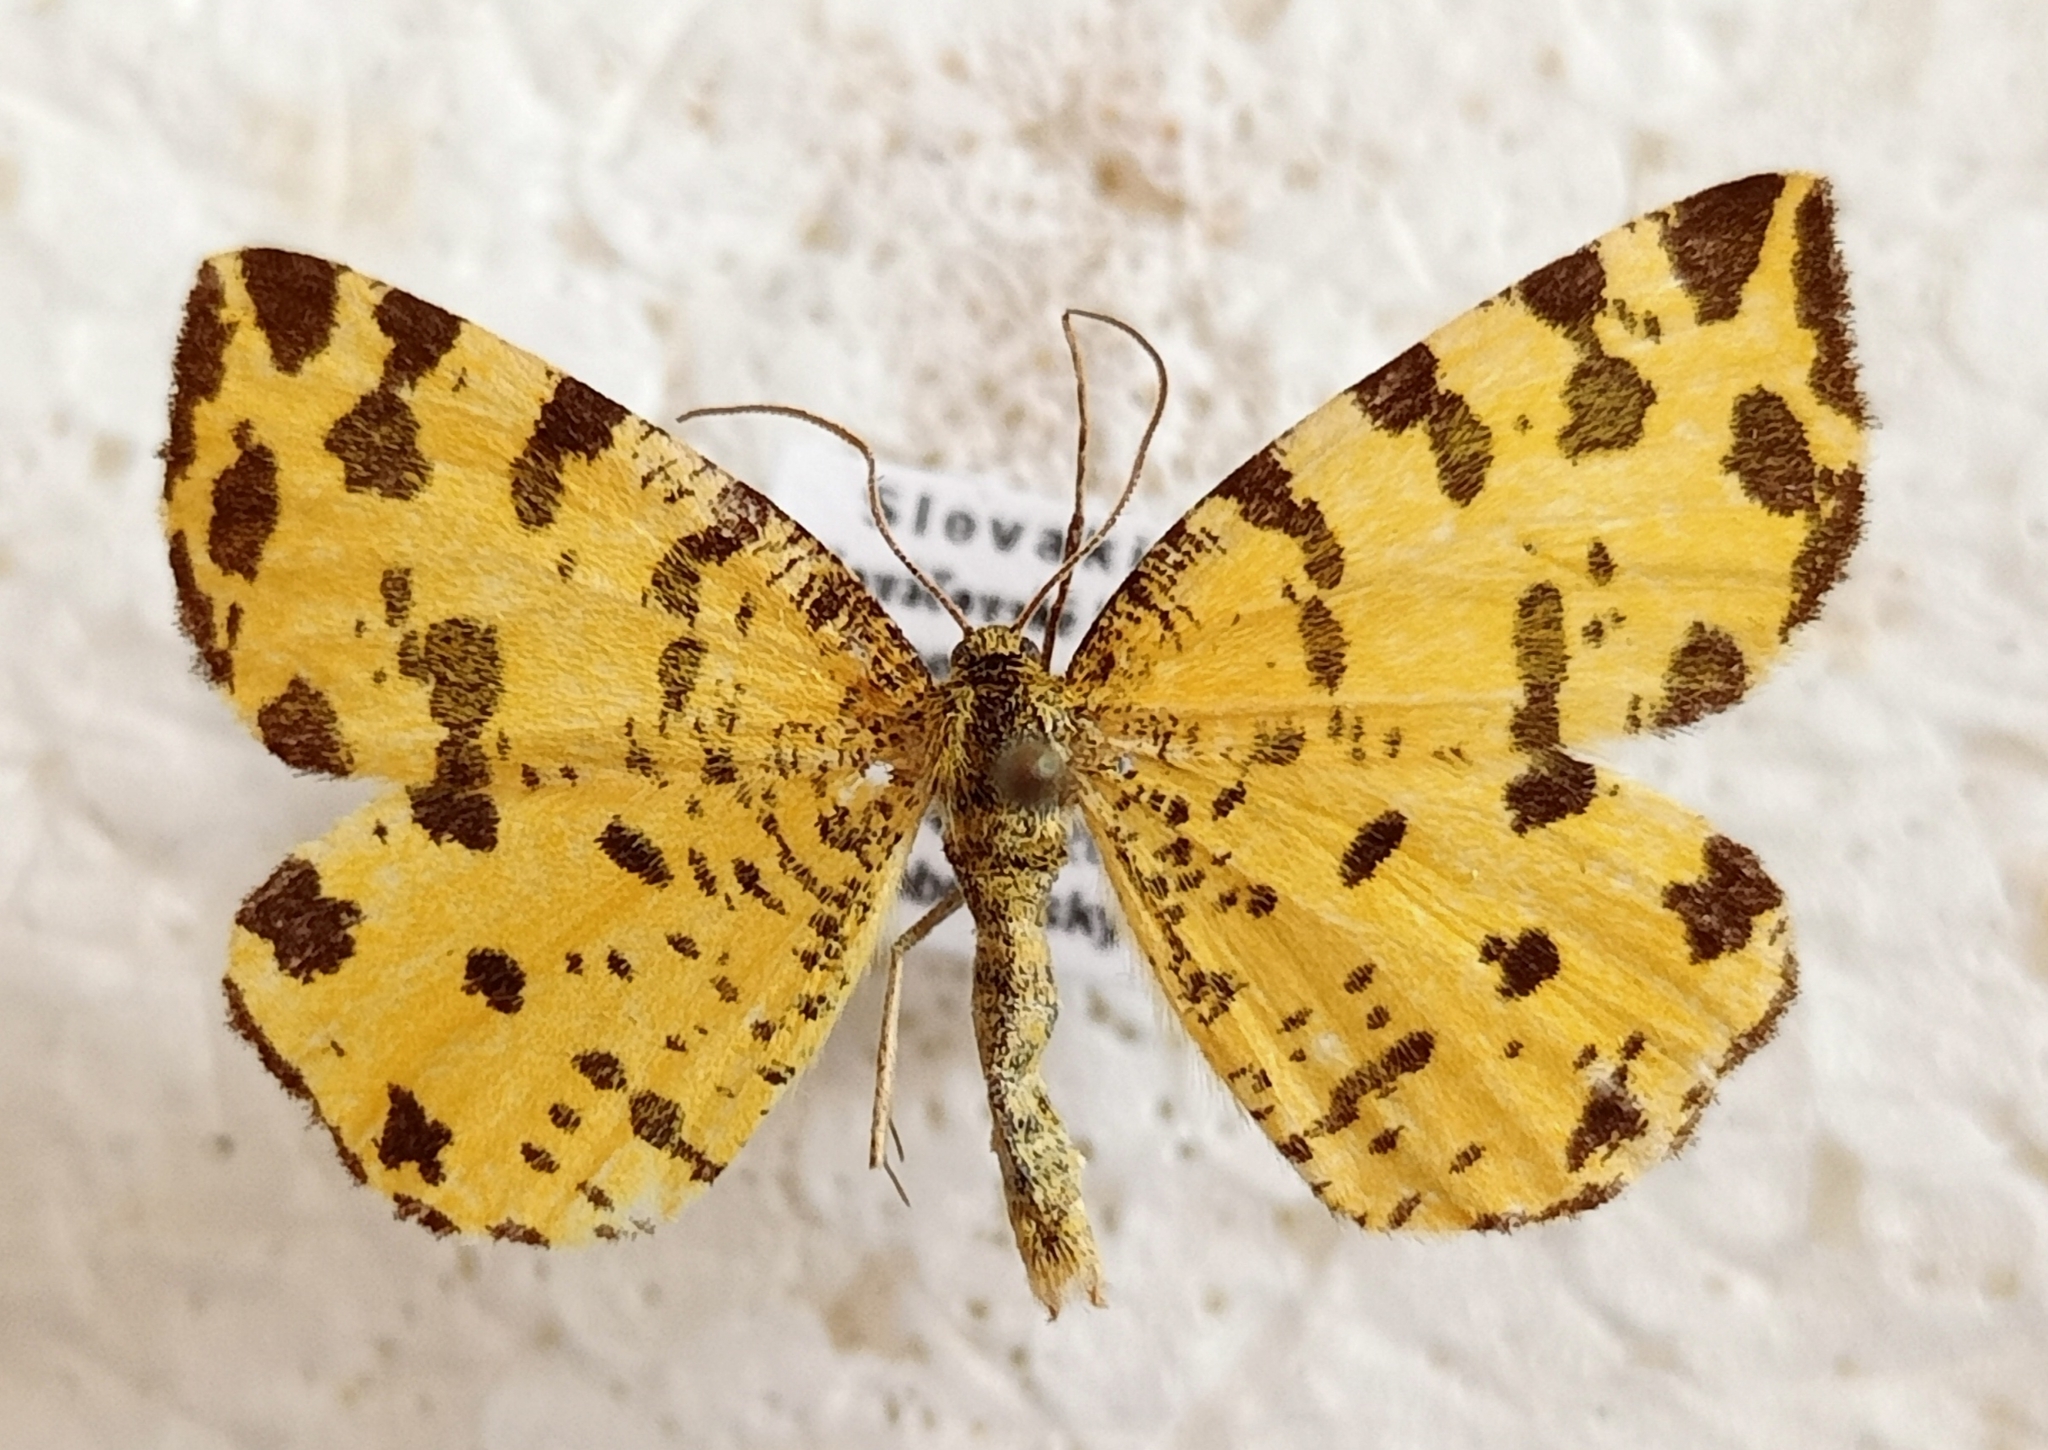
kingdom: Animalia
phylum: Arthropoda
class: Insecta
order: Lepidoptera
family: Geometridae
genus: Pseudopanthera
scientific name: Pseudopanthera macularia
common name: Speckled yellow
